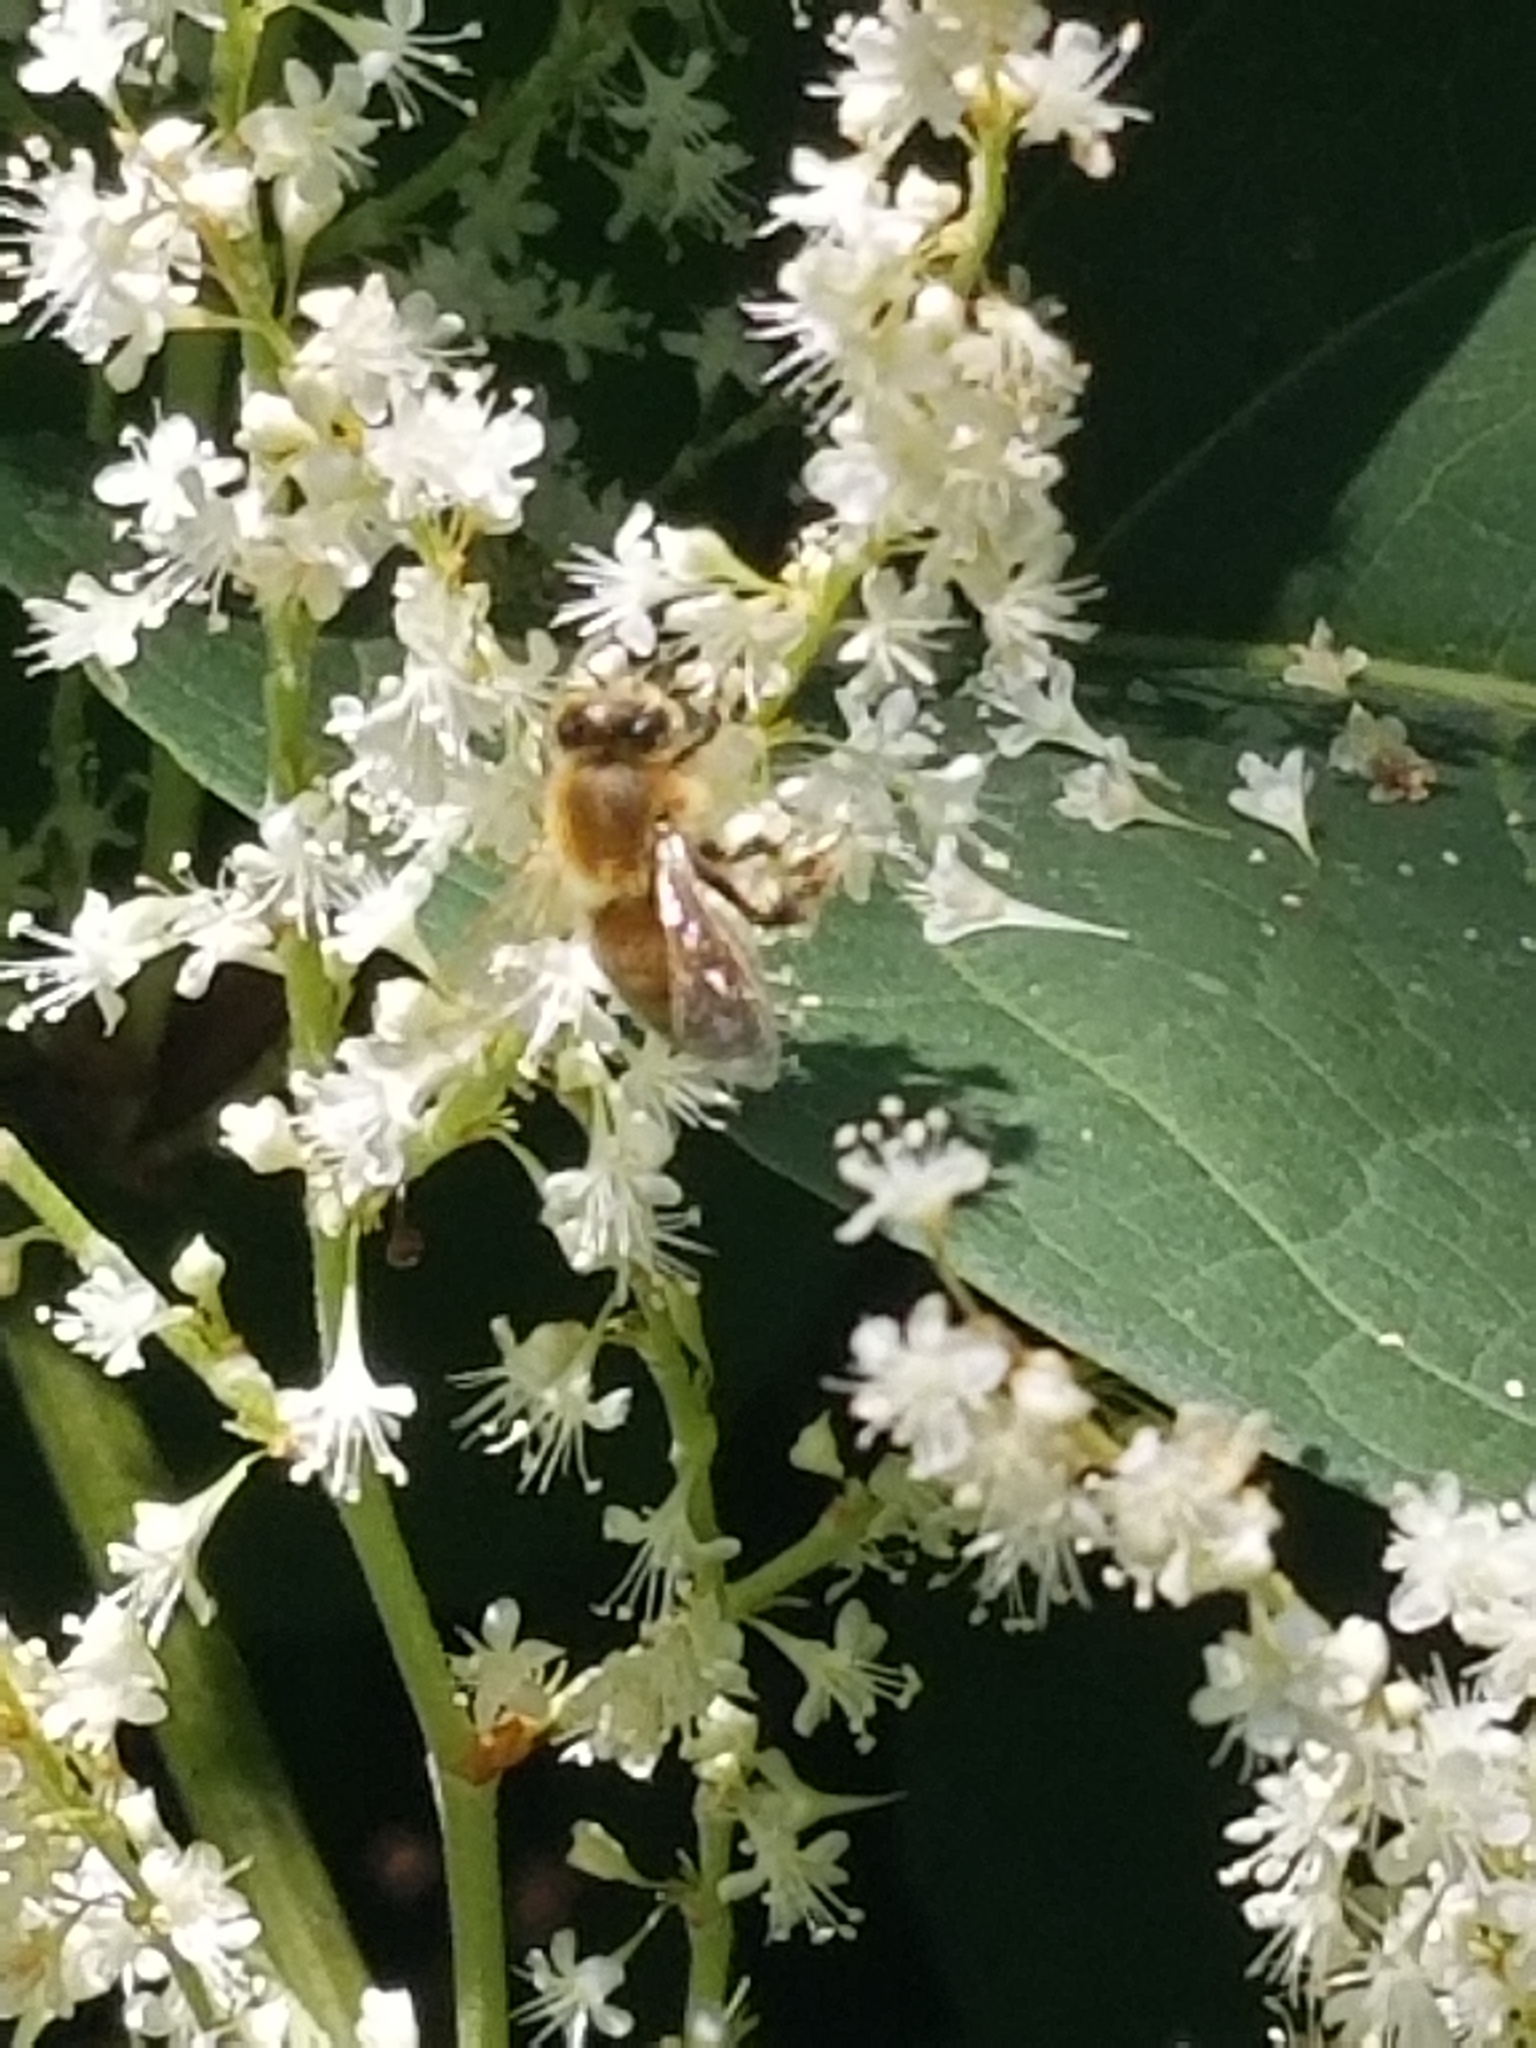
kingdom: Animalia
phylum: Arthropoda
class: Insecta
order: Hymenoptera
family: Apidae
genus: Apis
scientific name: Apis mellifera
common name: Honey bee
